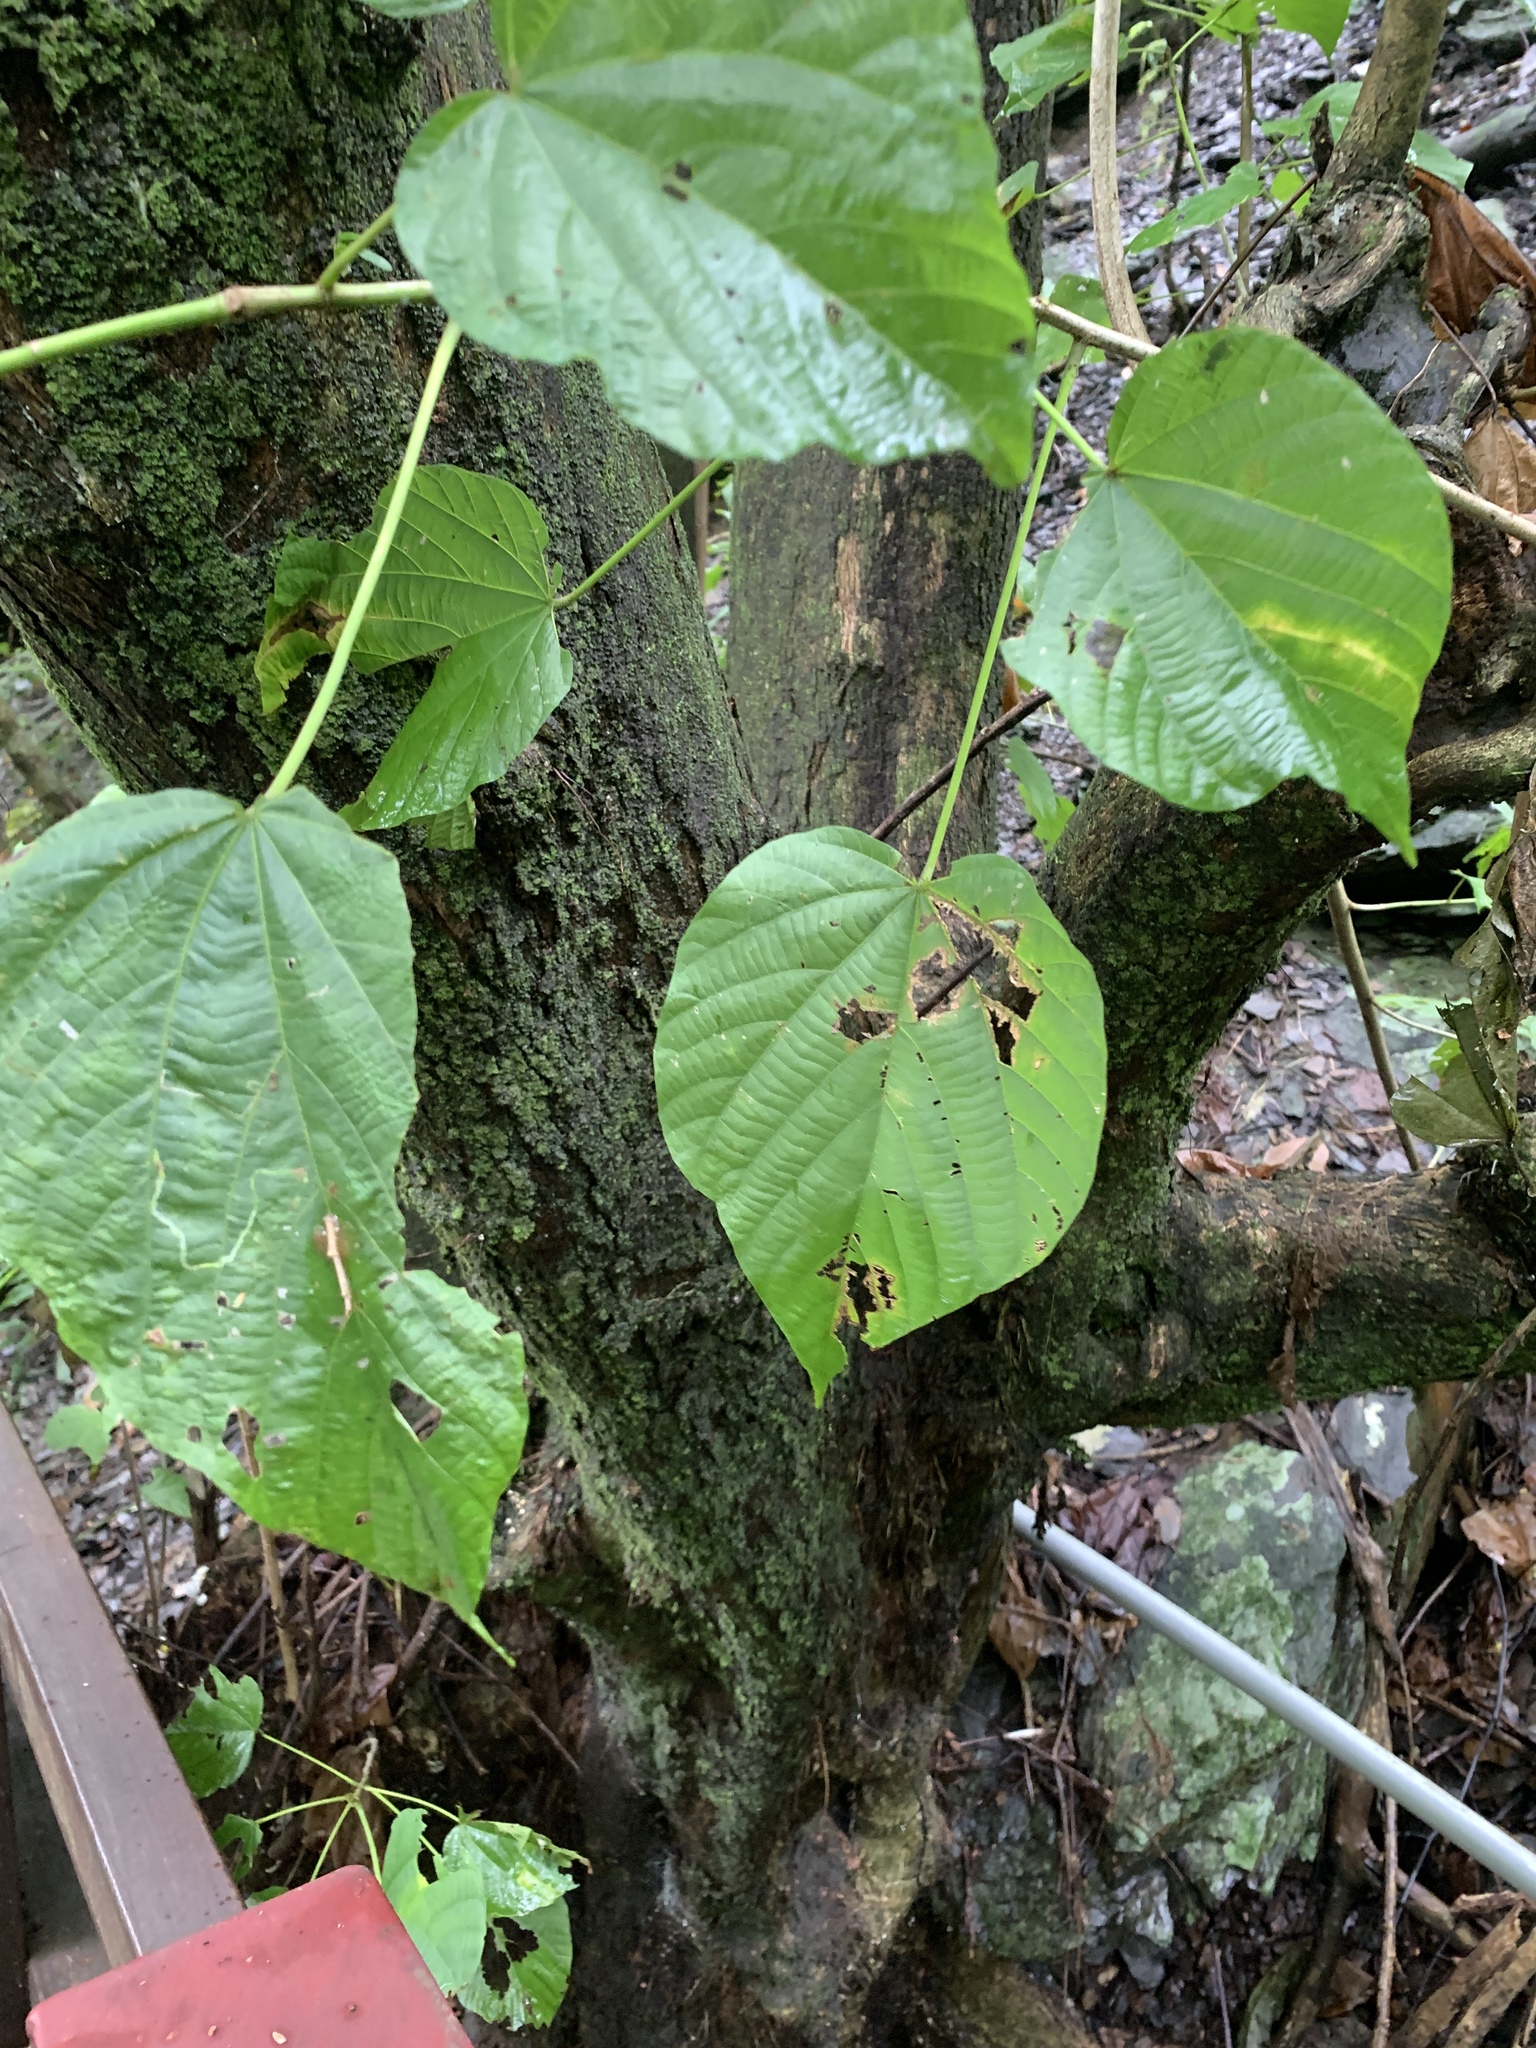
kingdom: Plantae
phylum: Tracheophyta
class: Magnoliopsida
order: Malvales
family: Malvaceae
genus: Kleinhovia
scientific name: Kleinhovia hospita
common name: Guest-tree
